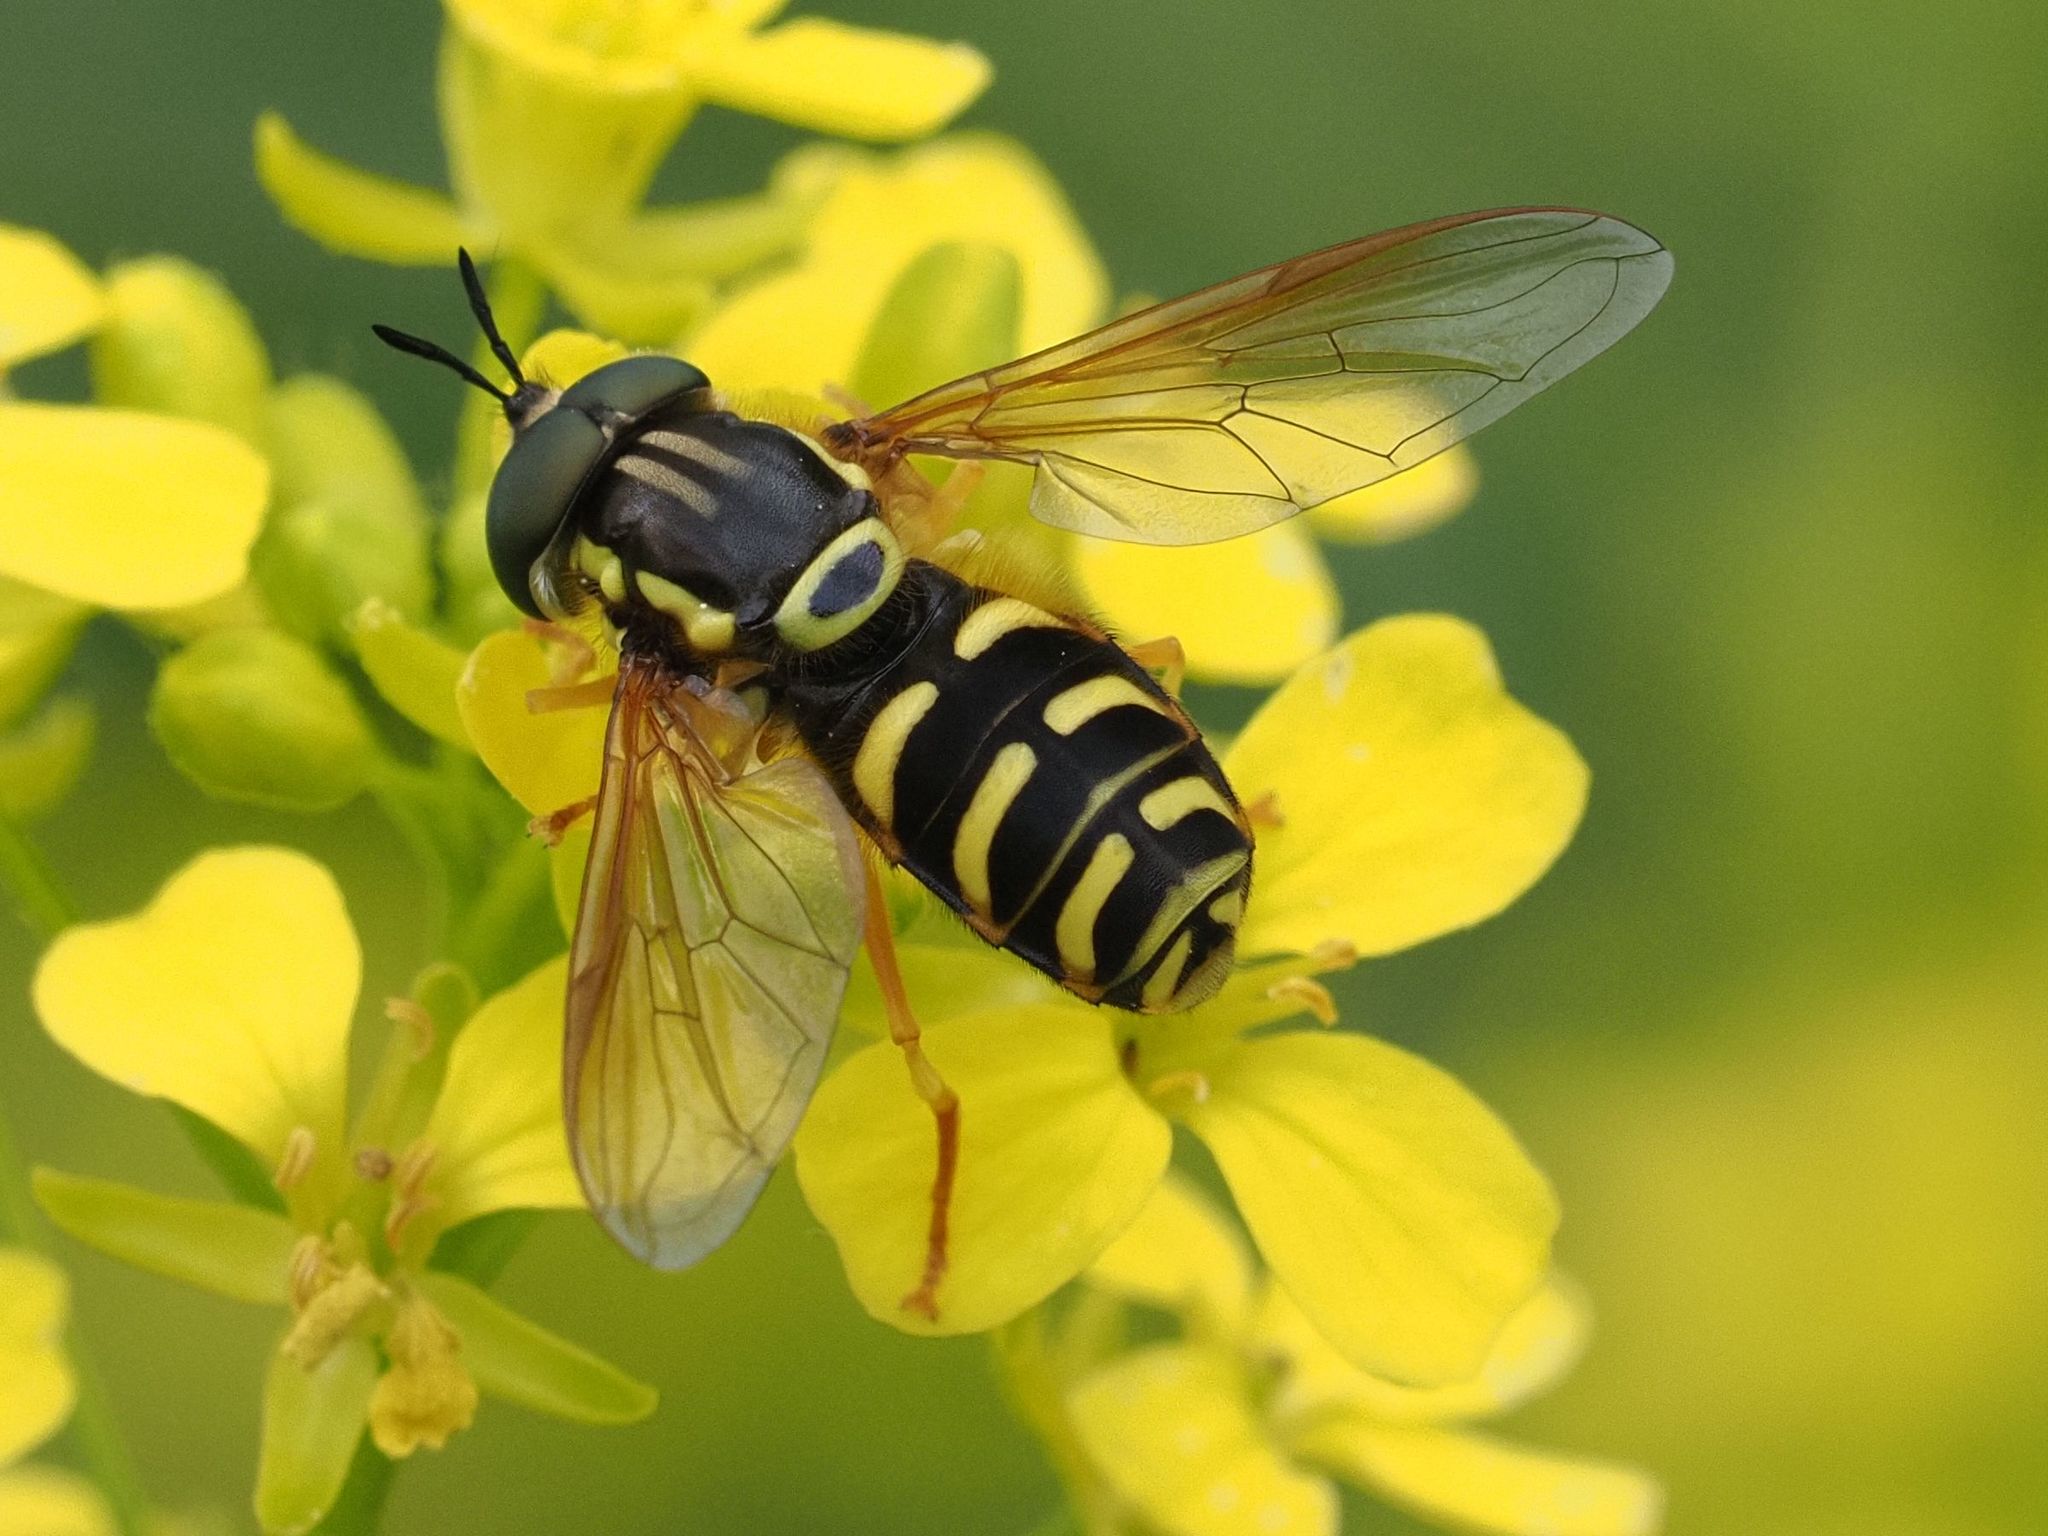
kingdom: Animalia
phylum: Arthropoda
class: Insecta
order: Diptera
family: Syrphidae
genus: Chrysotoxum
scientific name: Chrysotoxum elegans
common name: Zipperback
